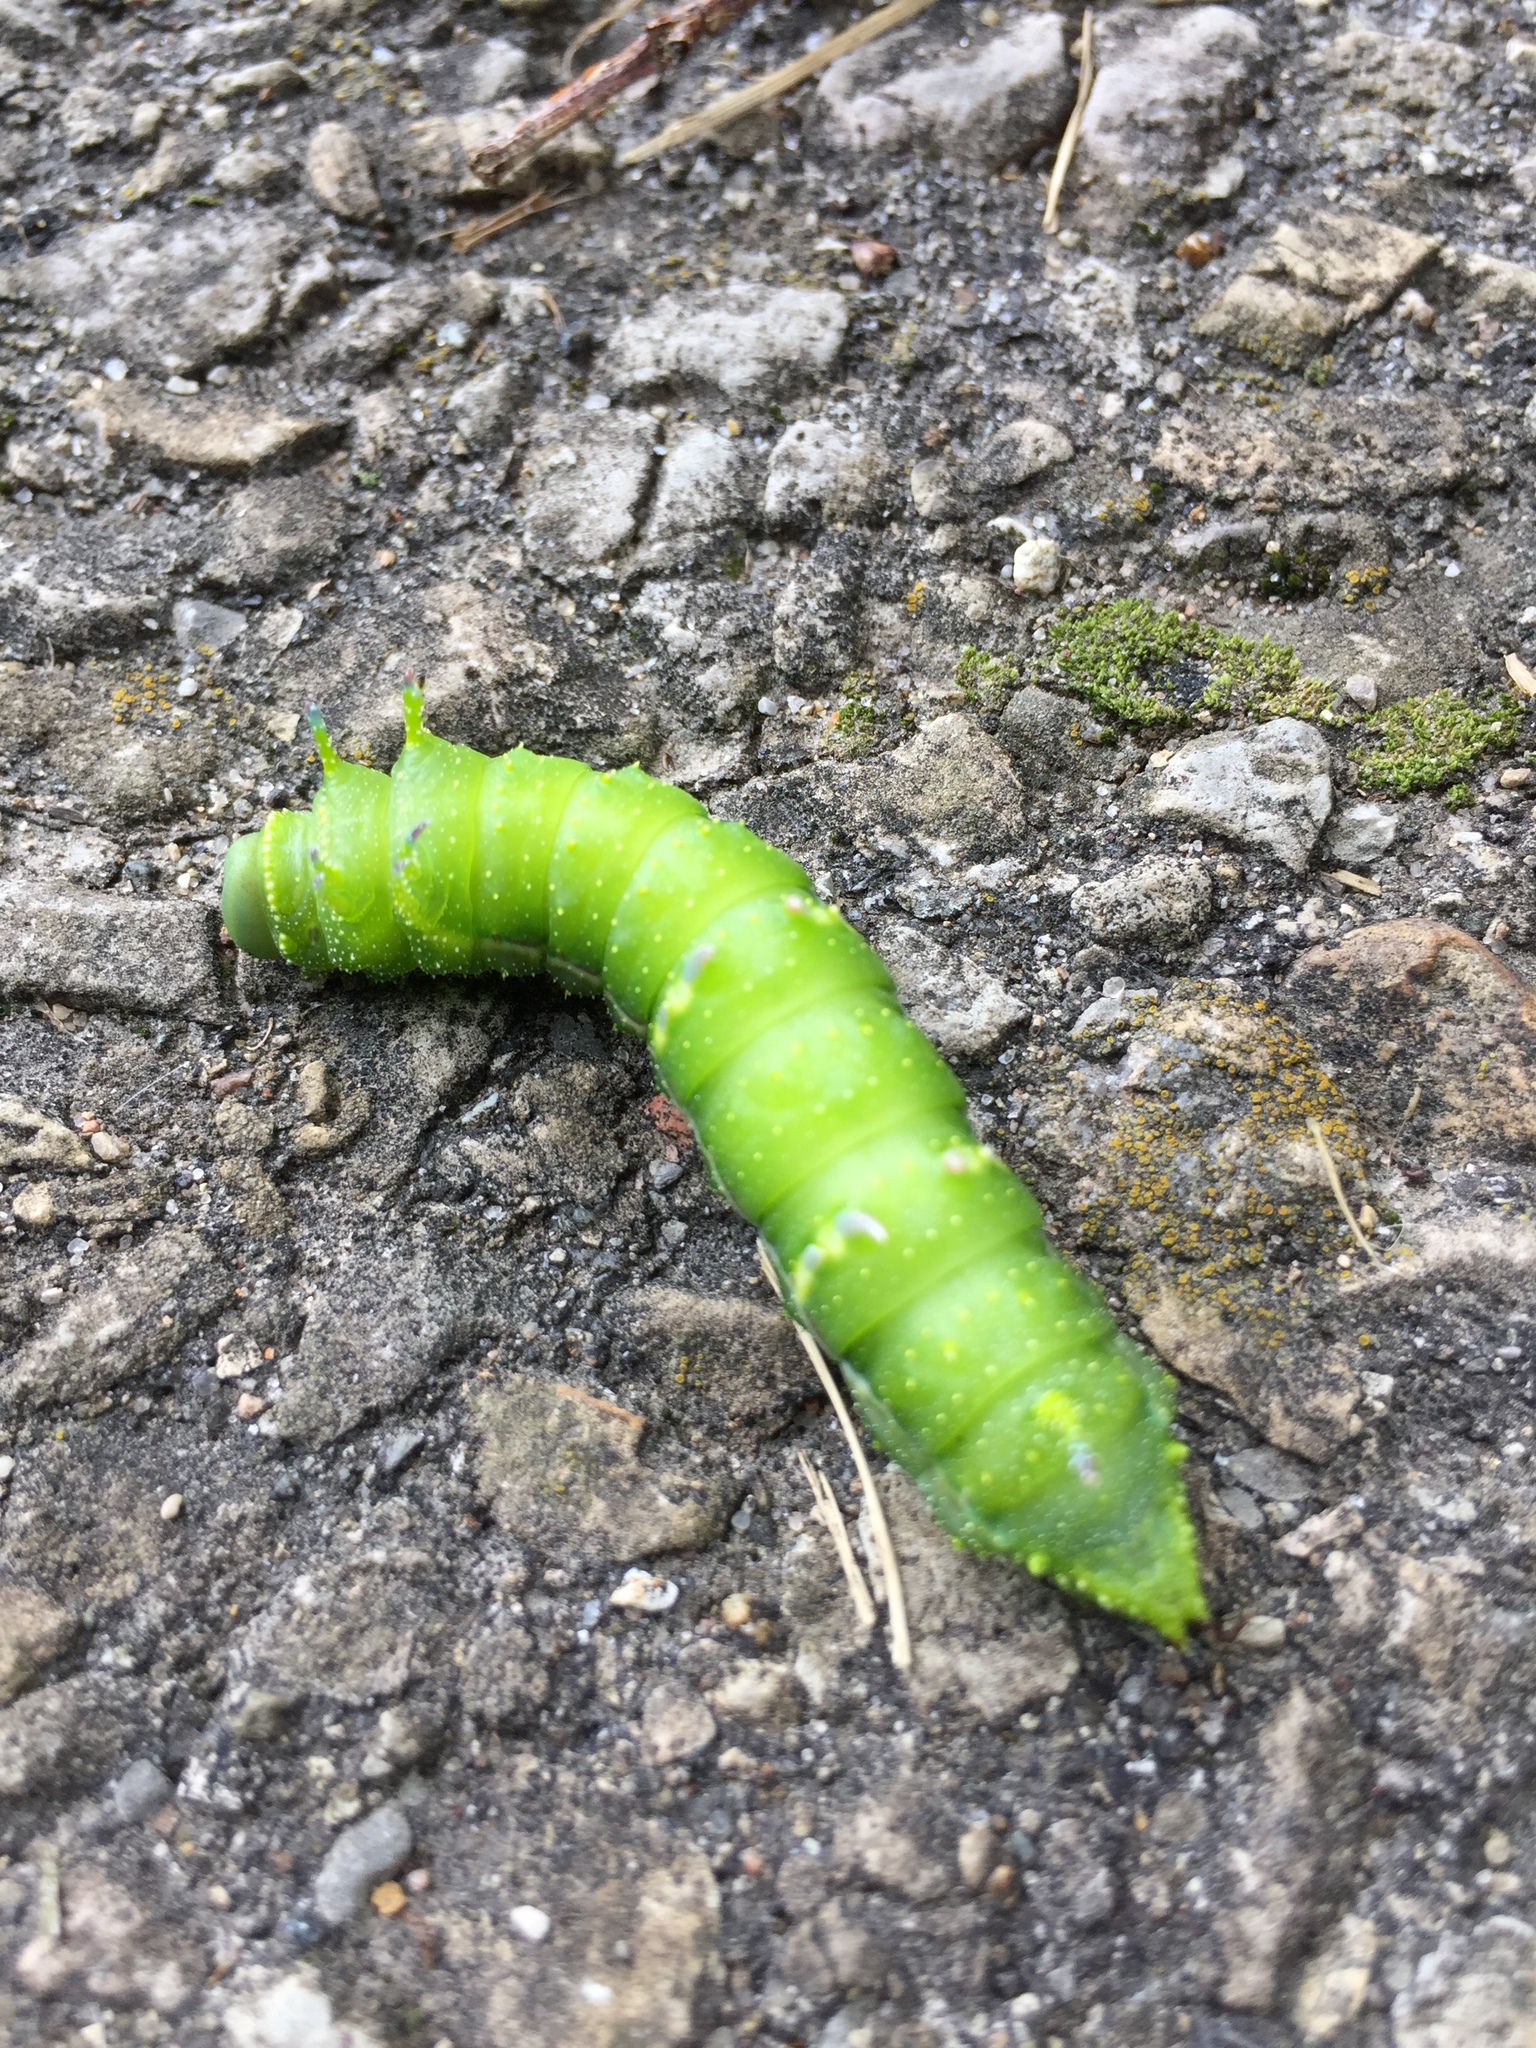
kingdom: Animalia
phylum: Arthropoda
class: Insecta
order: Lepidoptera
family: Saturniidae
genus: Syssphinx
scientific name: Syssphinx bisecta
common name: Bisected honey locust moth
